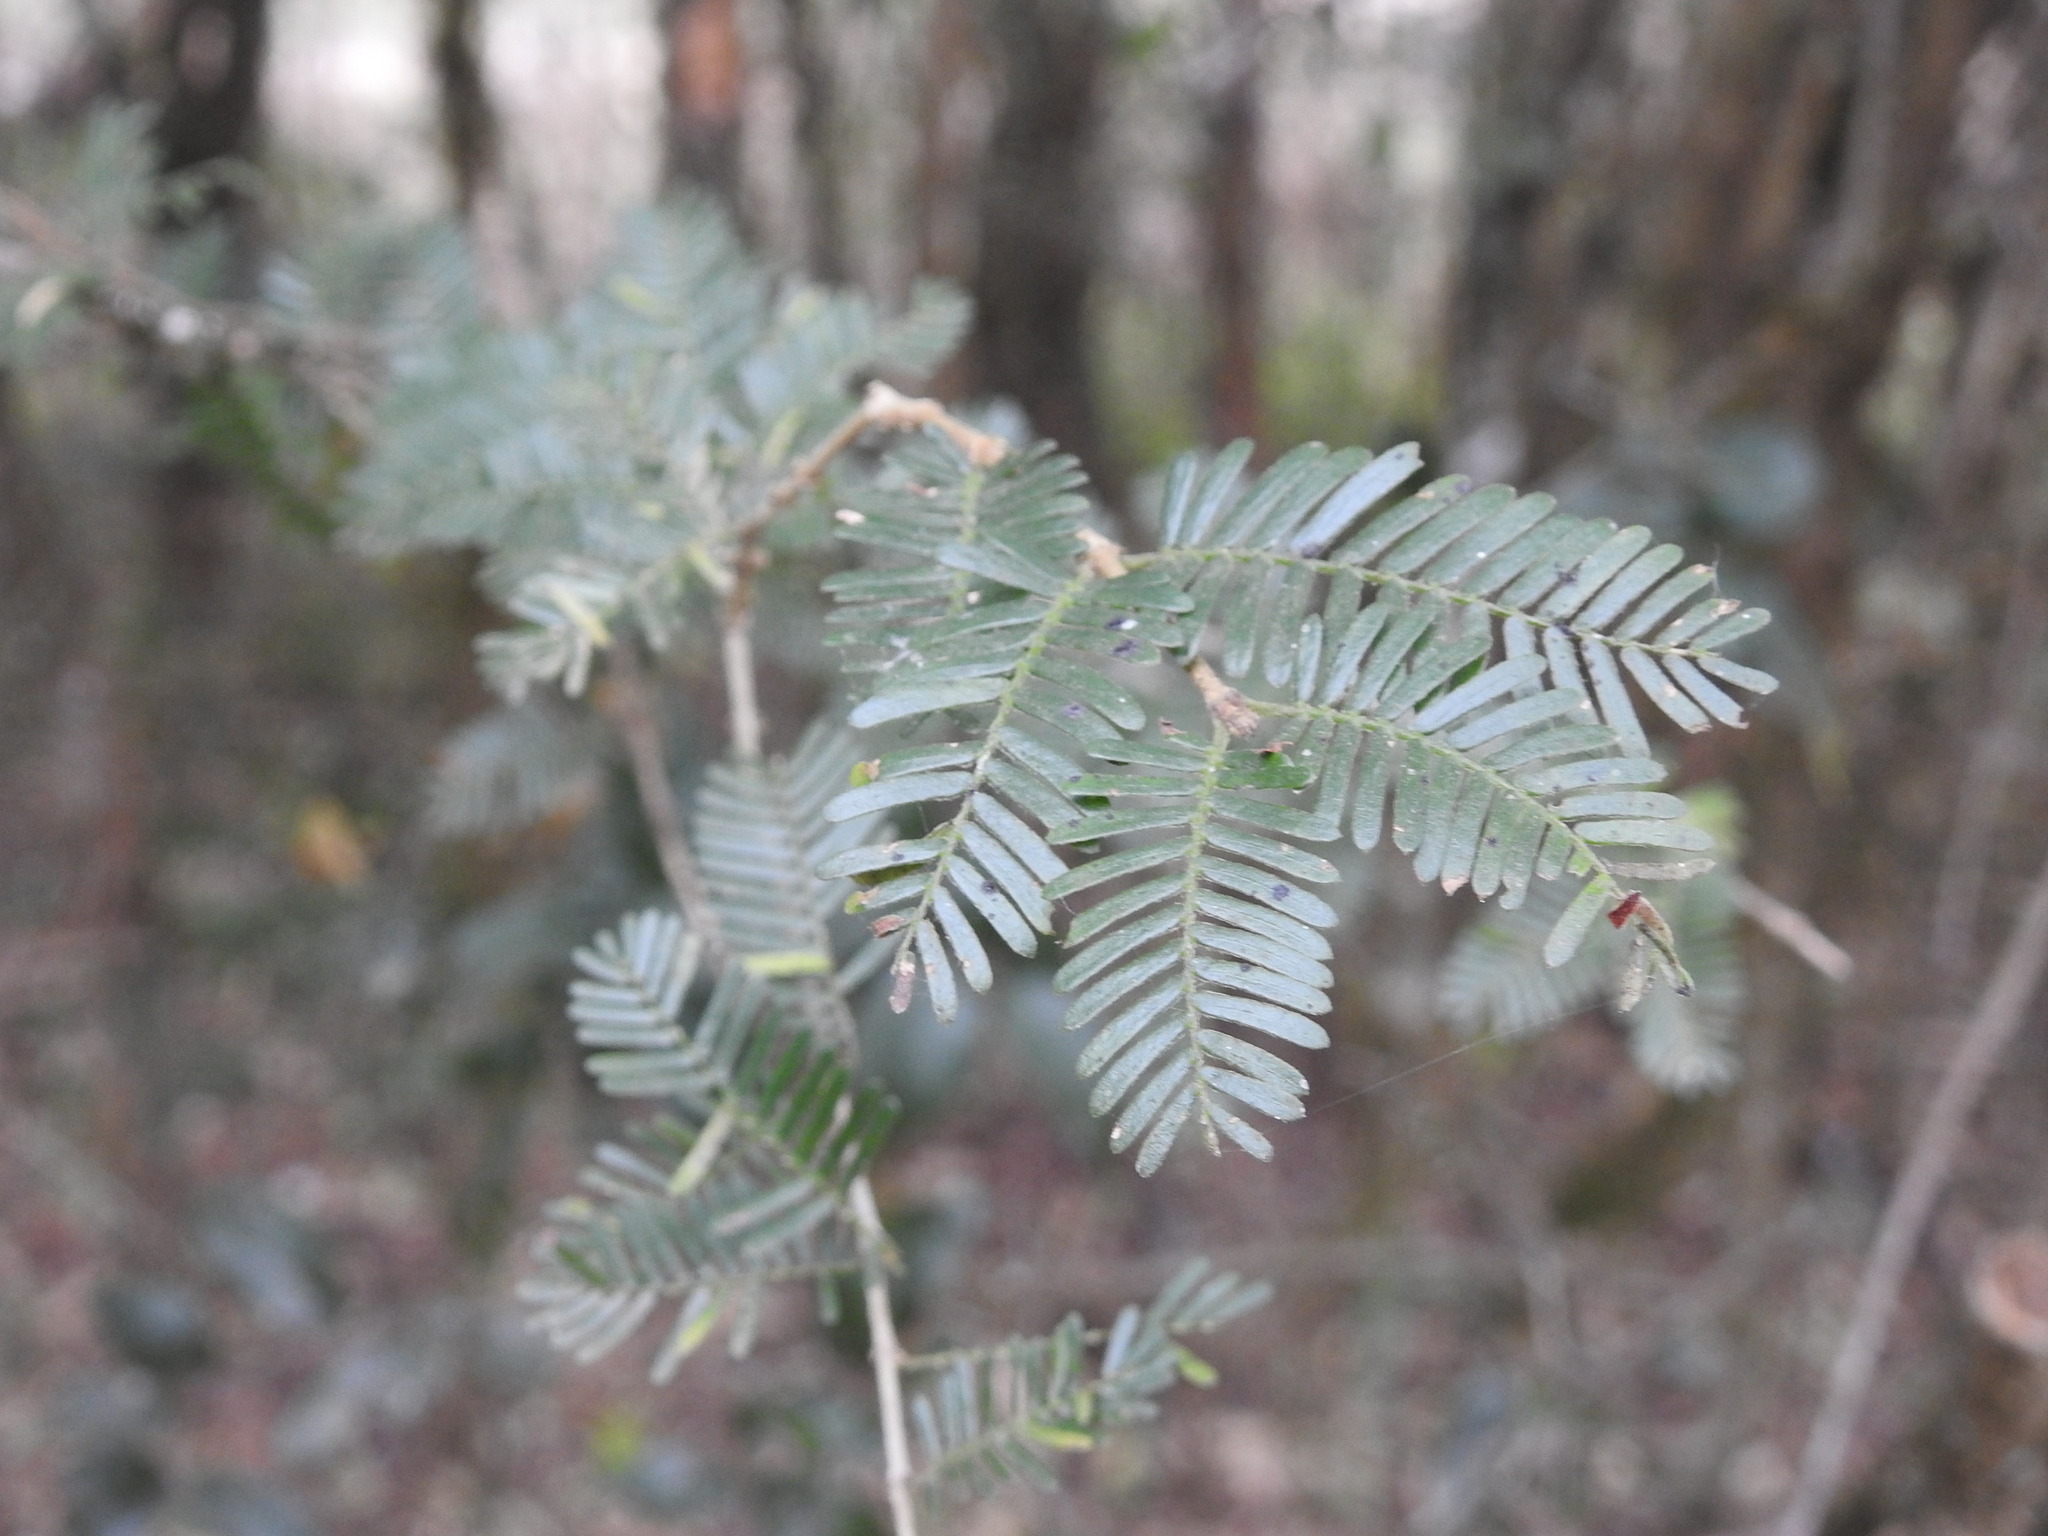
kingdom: Plantae
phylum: Tracheophyta
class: Magnoliopsida
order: Zygophyllales
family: Zygophyllaceae
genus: Porlieria
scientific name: Porlieria microphylla
